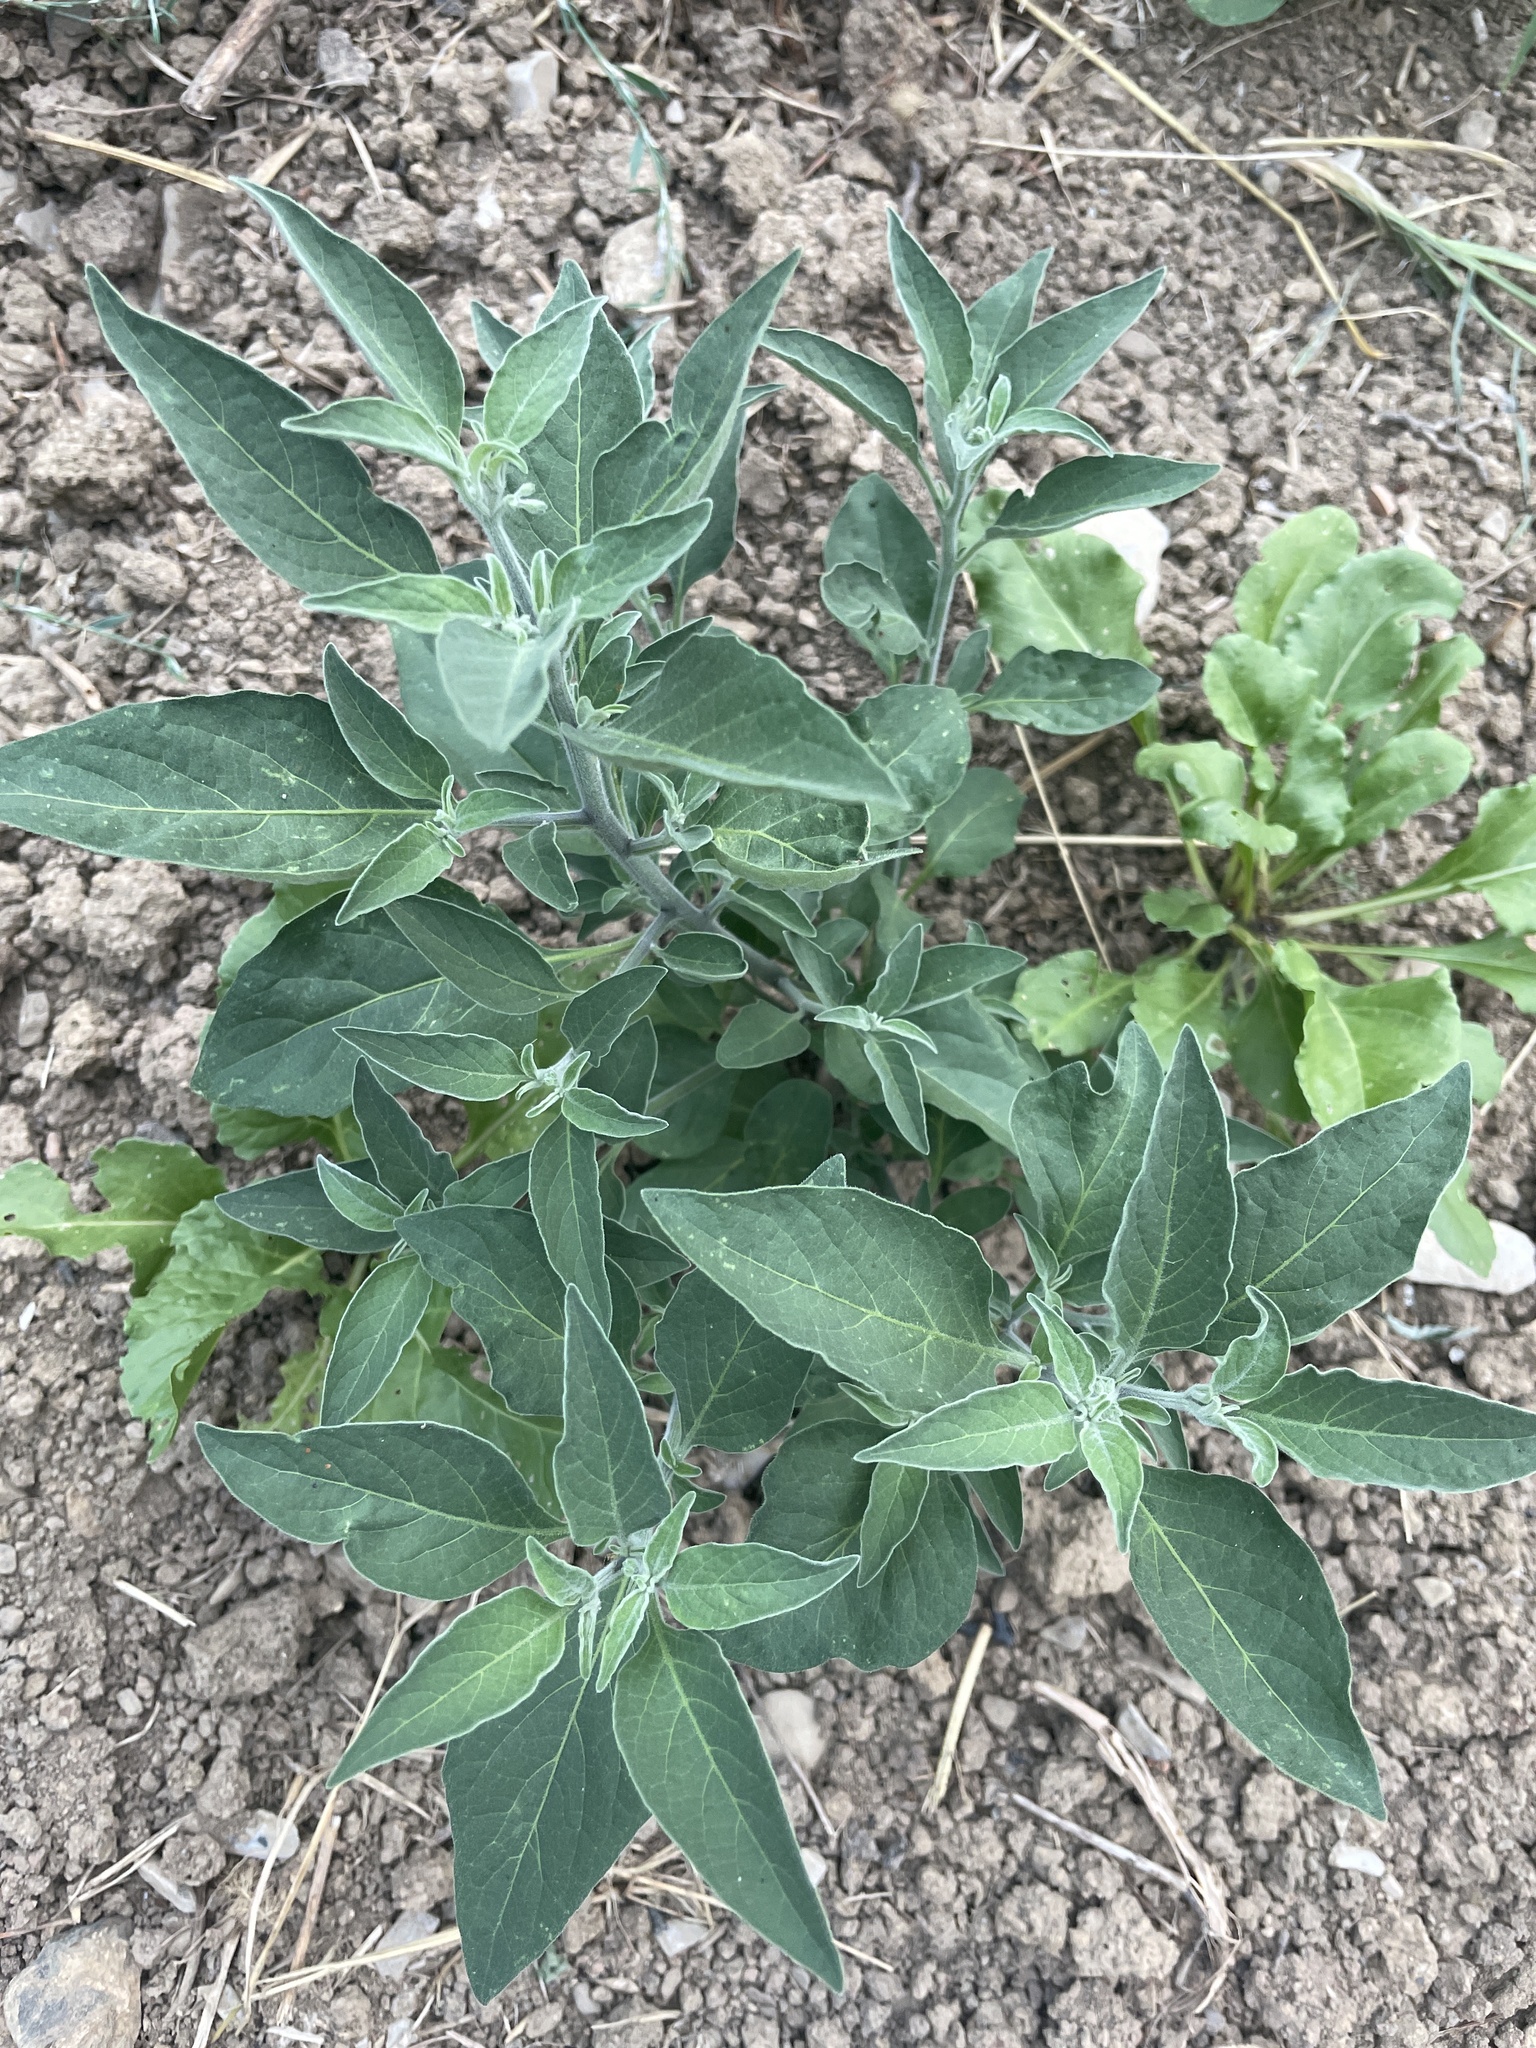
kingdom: Plantae
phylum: Tracheophyta
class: Magnoliopsida
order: Solanales
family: Solanaceae
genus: Solanum
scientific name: Solanum chenopodioides
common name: Tall nightshade
